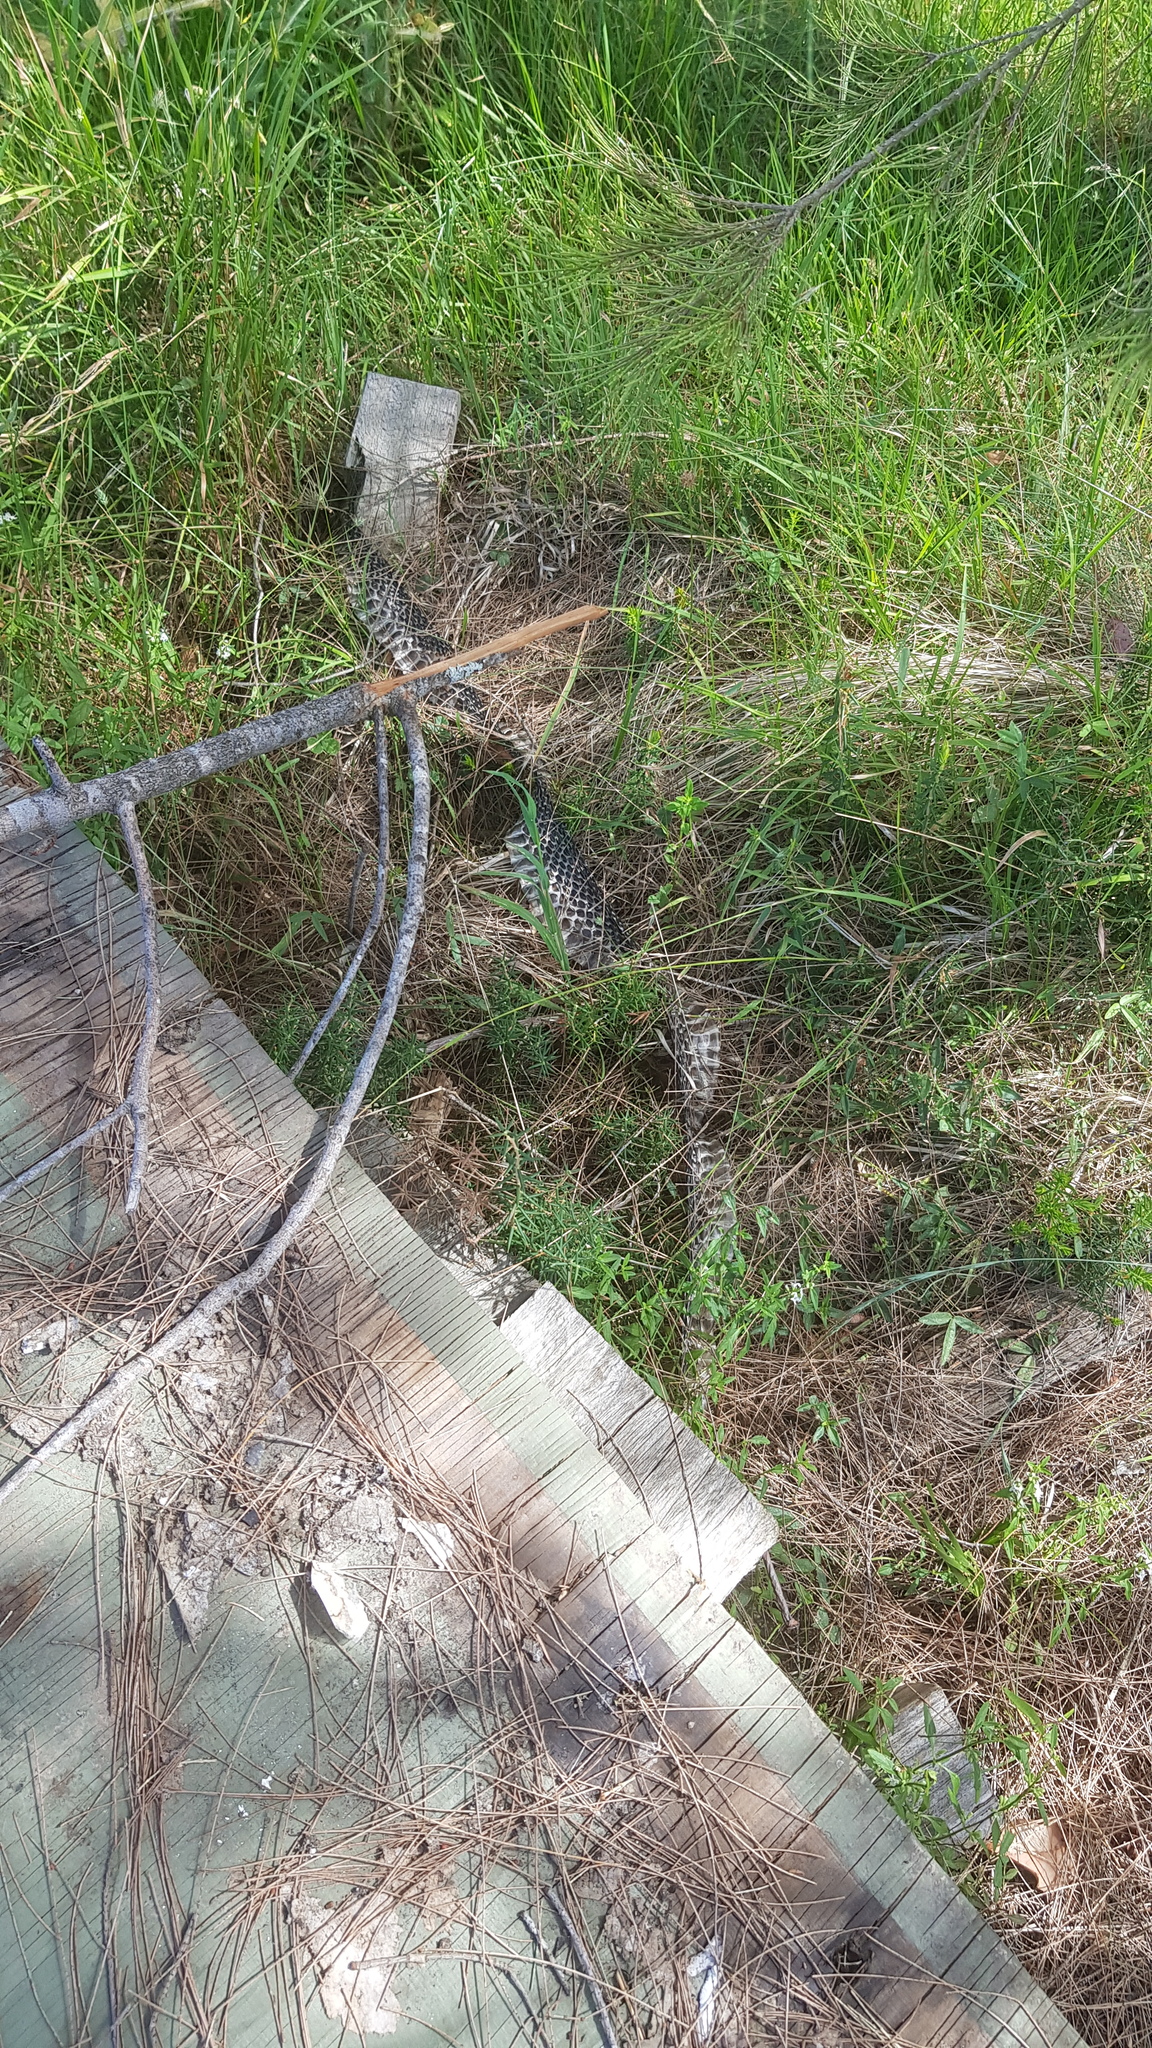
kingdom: Animalia
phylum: Chordata
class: Squamata
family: Elapidae
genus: Pseudechis
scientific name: Pseudechis porphyriacus
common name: Australian black snake
